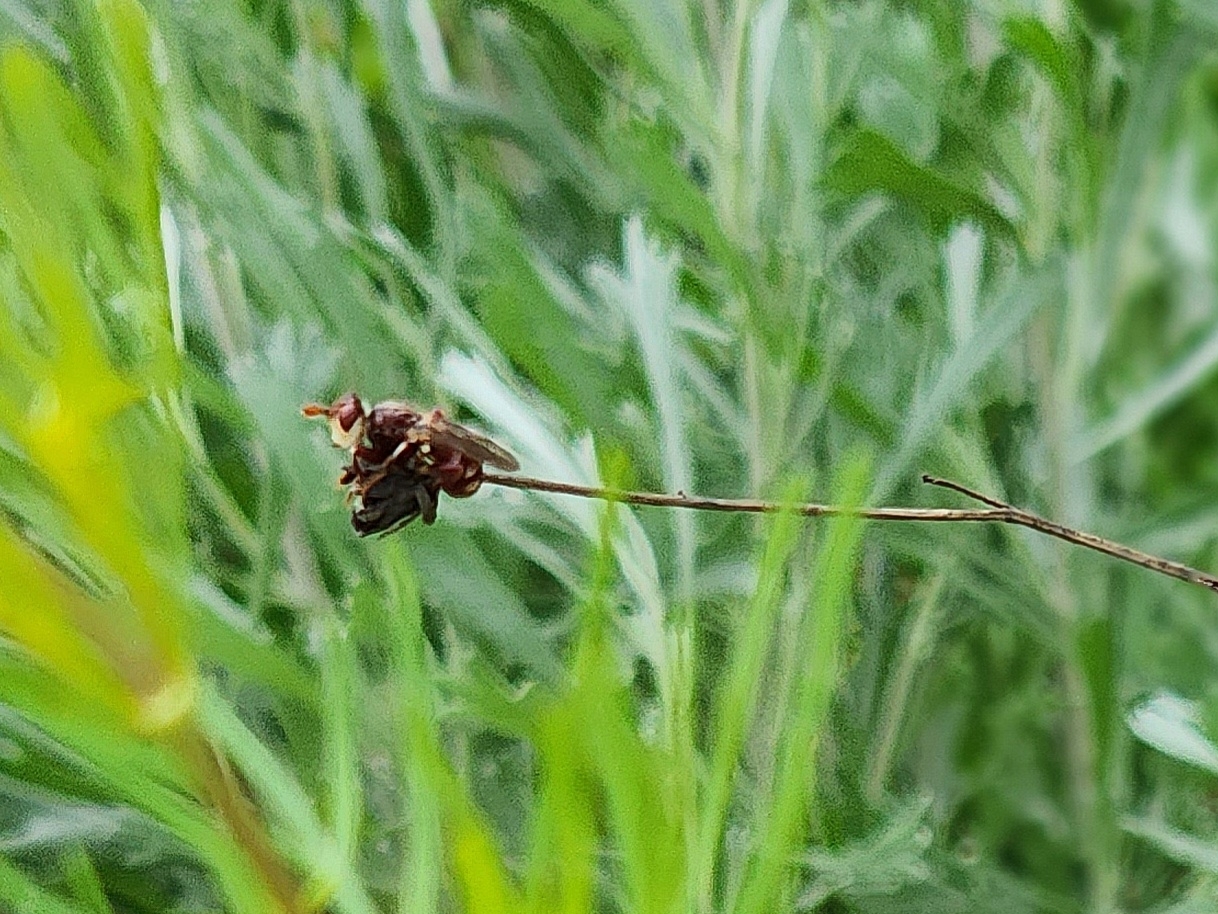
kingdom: Animalia
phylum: Arthropoda
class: Insecta
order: Diptera
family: Conopidae
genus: Myopa
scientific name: Myopa clausa
